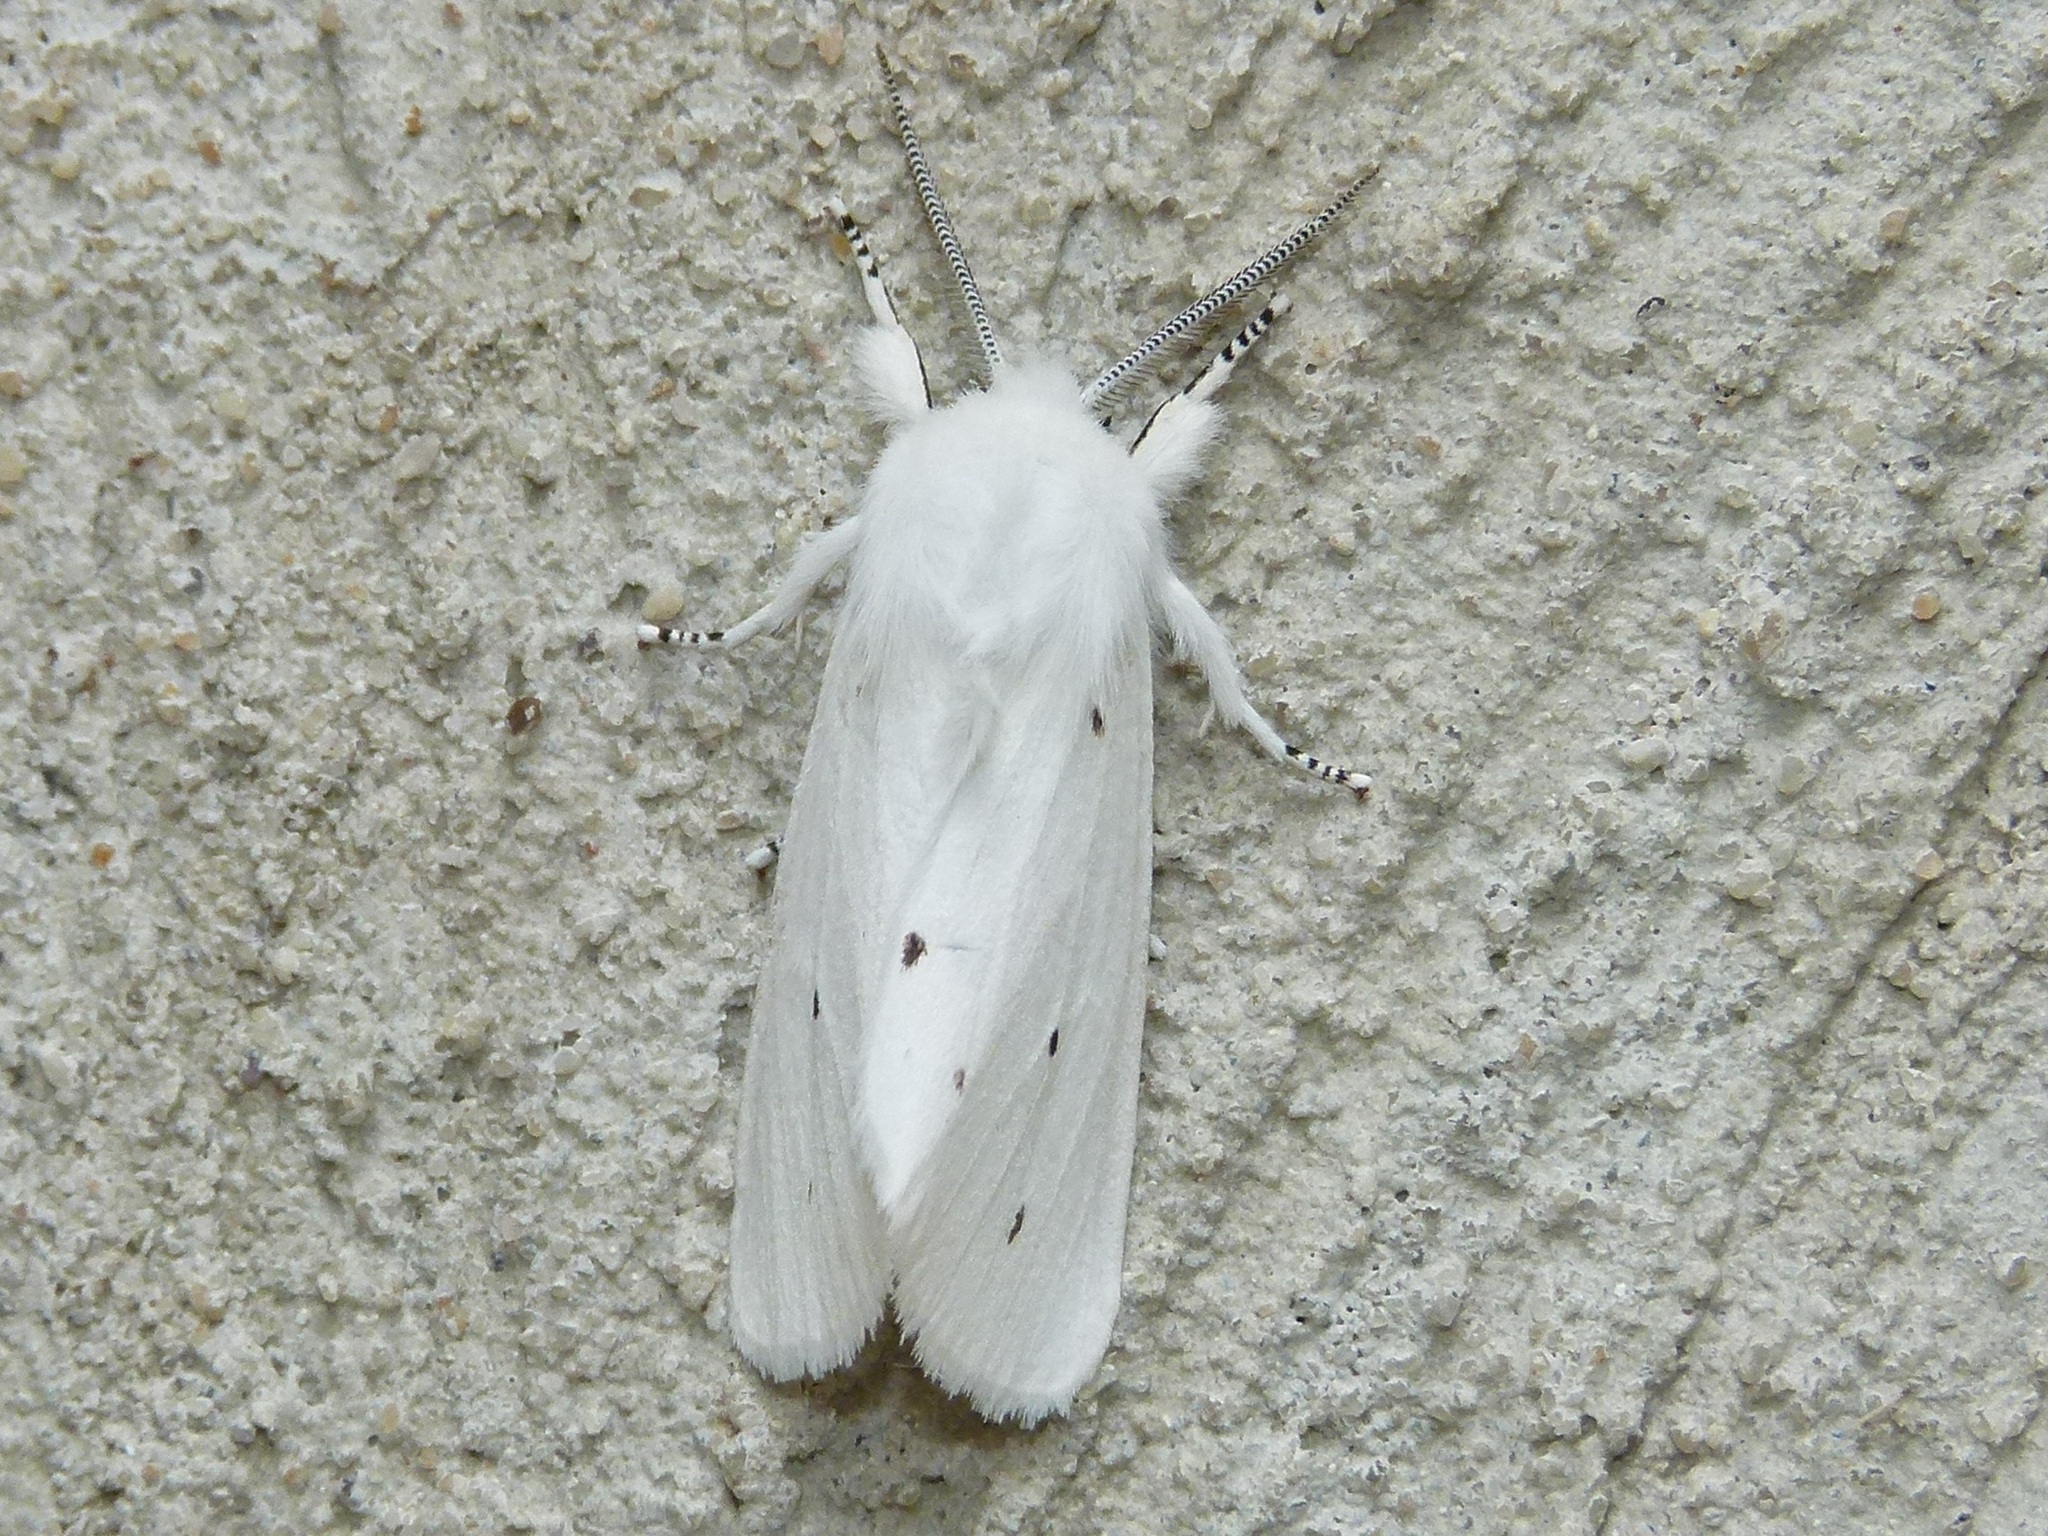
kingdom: Animalia
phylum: Arthropoda
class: Insecta
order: Lepidoptera
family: Erebidae
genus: Spilosoma
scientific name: Spilosoma virginica
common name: Virginia tiger moth
